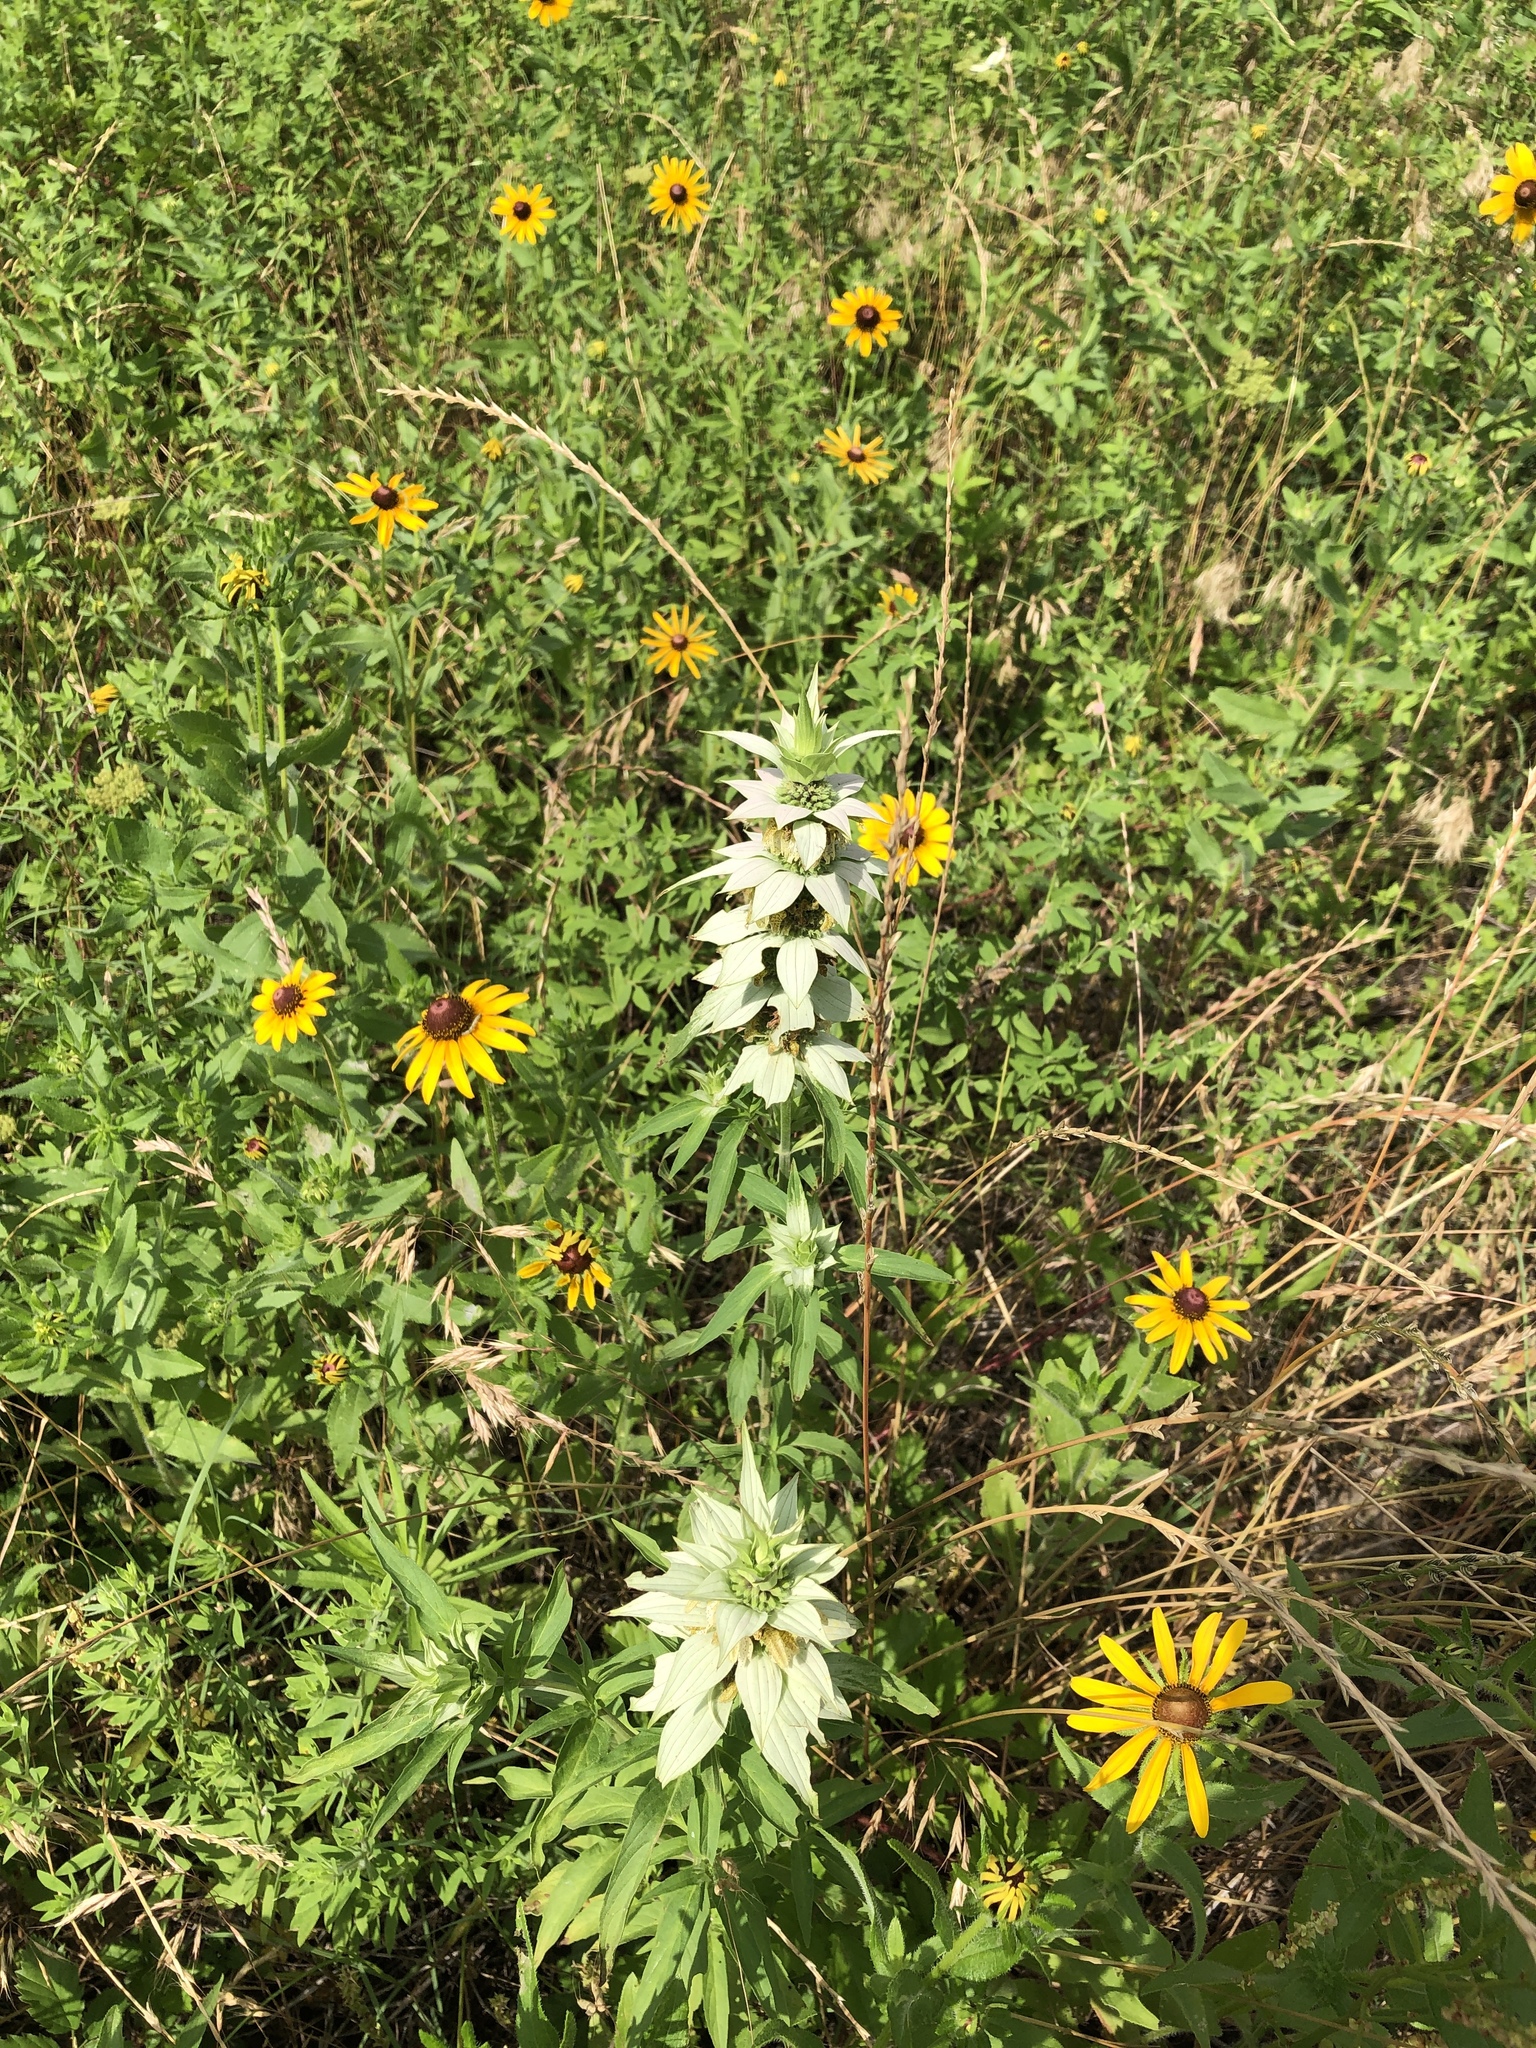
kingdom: Plantae
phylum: Tracheophyta
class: Magnoliopsida
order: Lamiales
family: Lamiaceae
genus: Monarda
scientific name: Monarda punctata
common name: Dotted monarda
